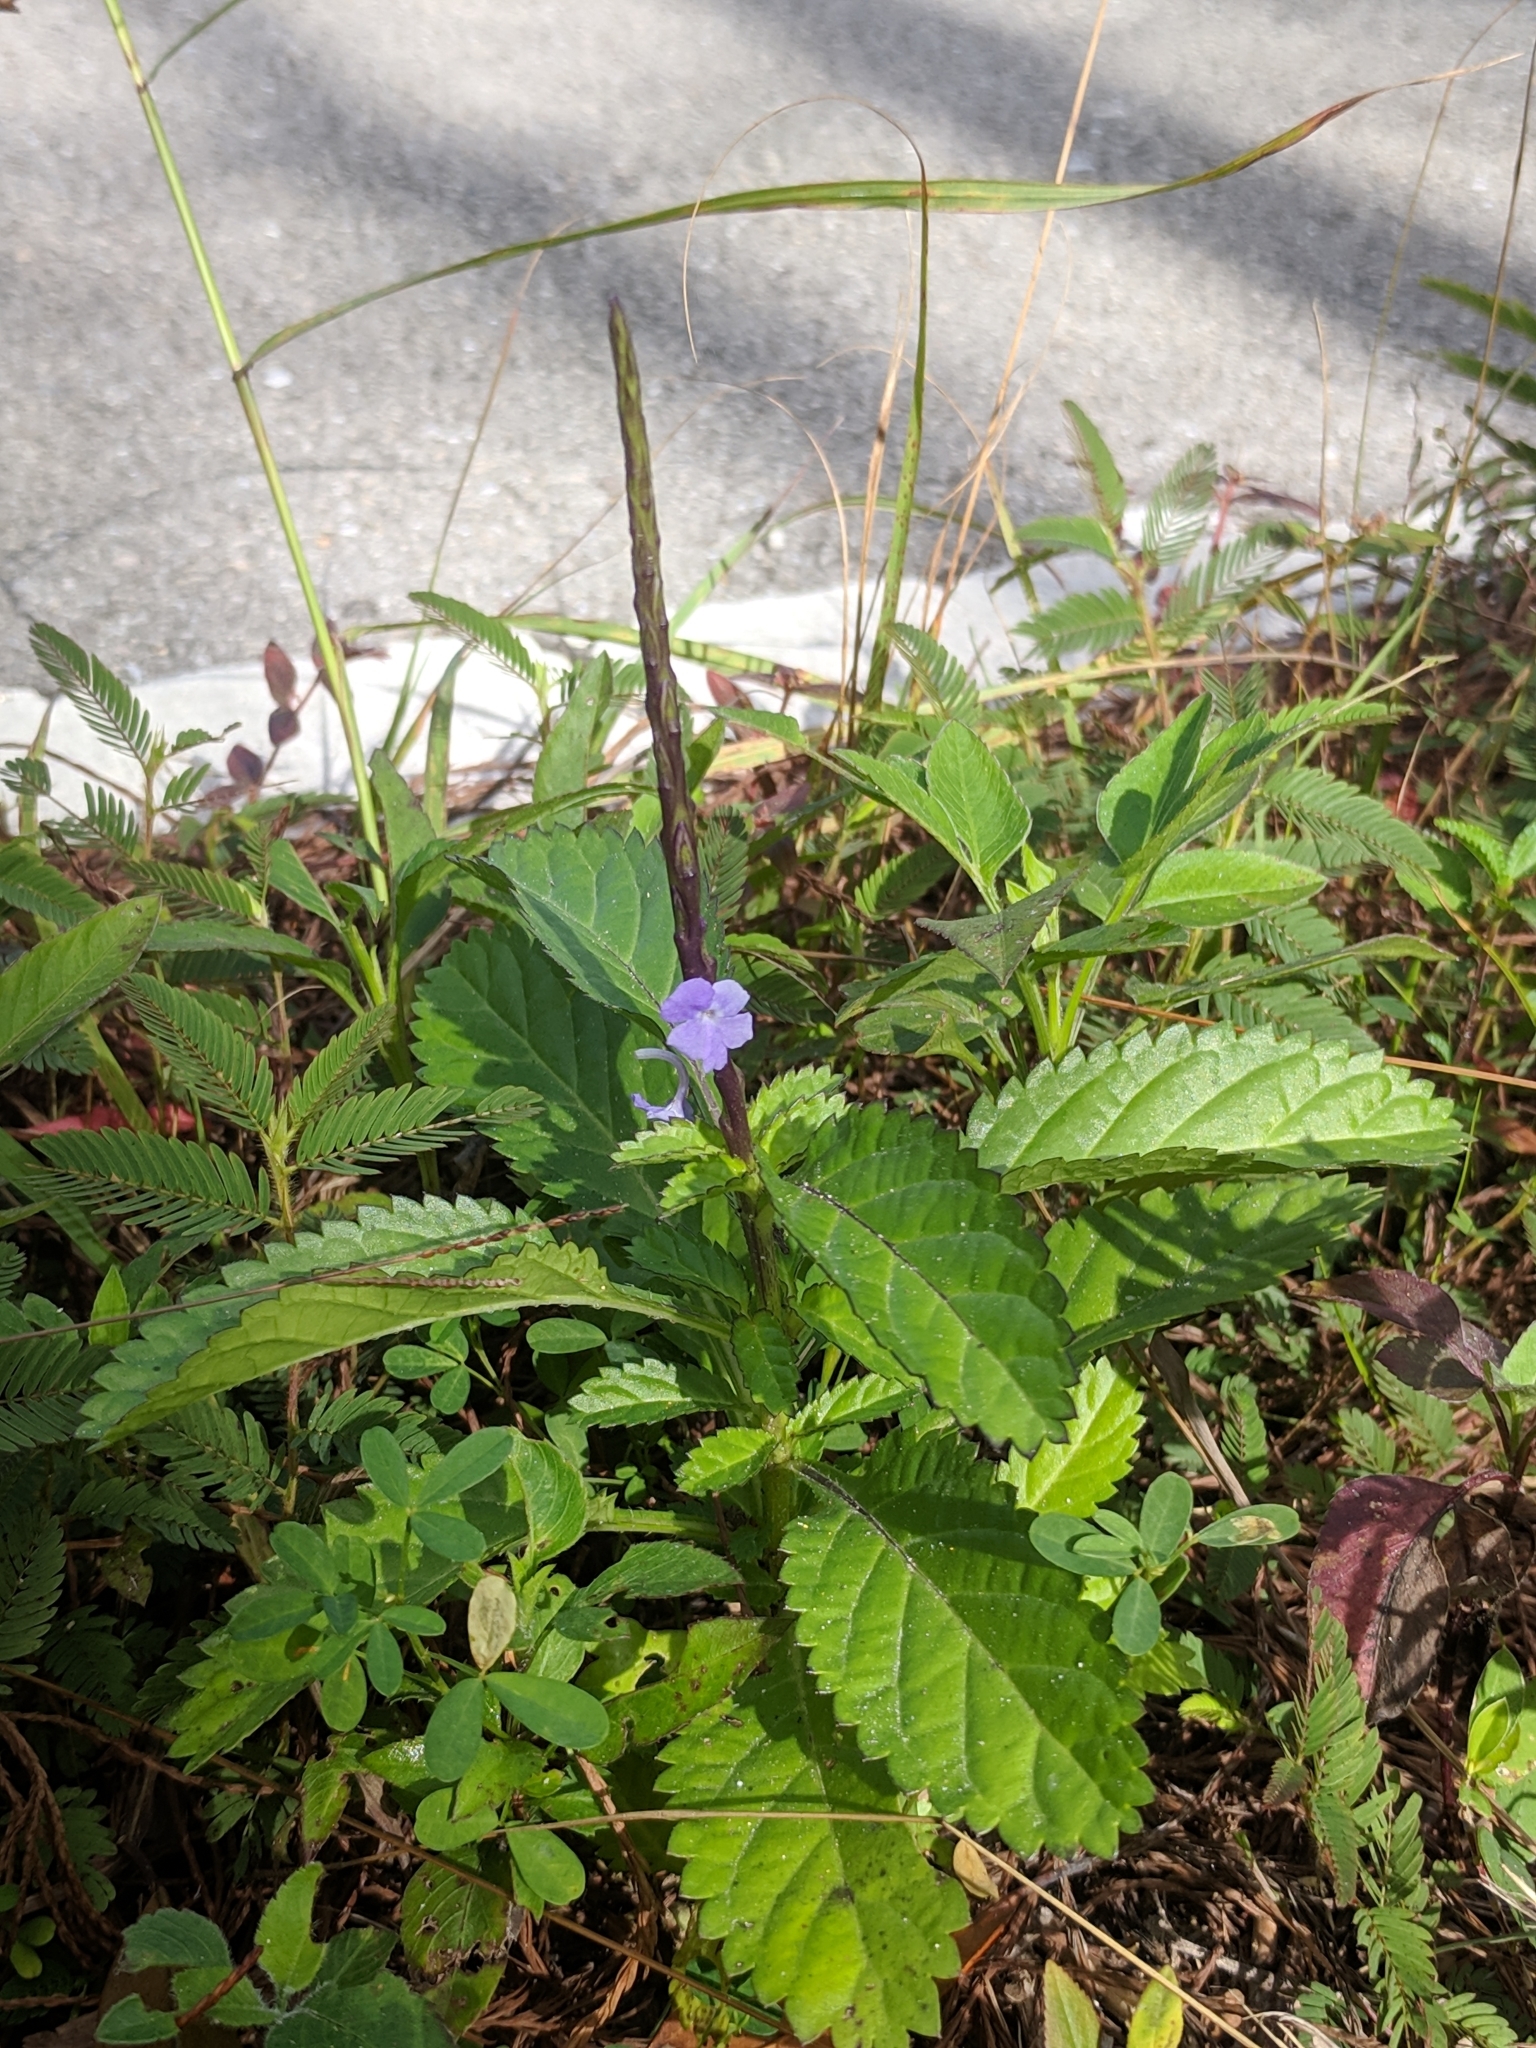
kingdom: Plantae
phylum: Tracheophyta
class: Magnoliopsida
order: Lamiales
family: Verbenaceae
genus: Stachytarpheta
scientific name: Stachytarpheta jamaicensis
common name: Light-blue snakeweed
